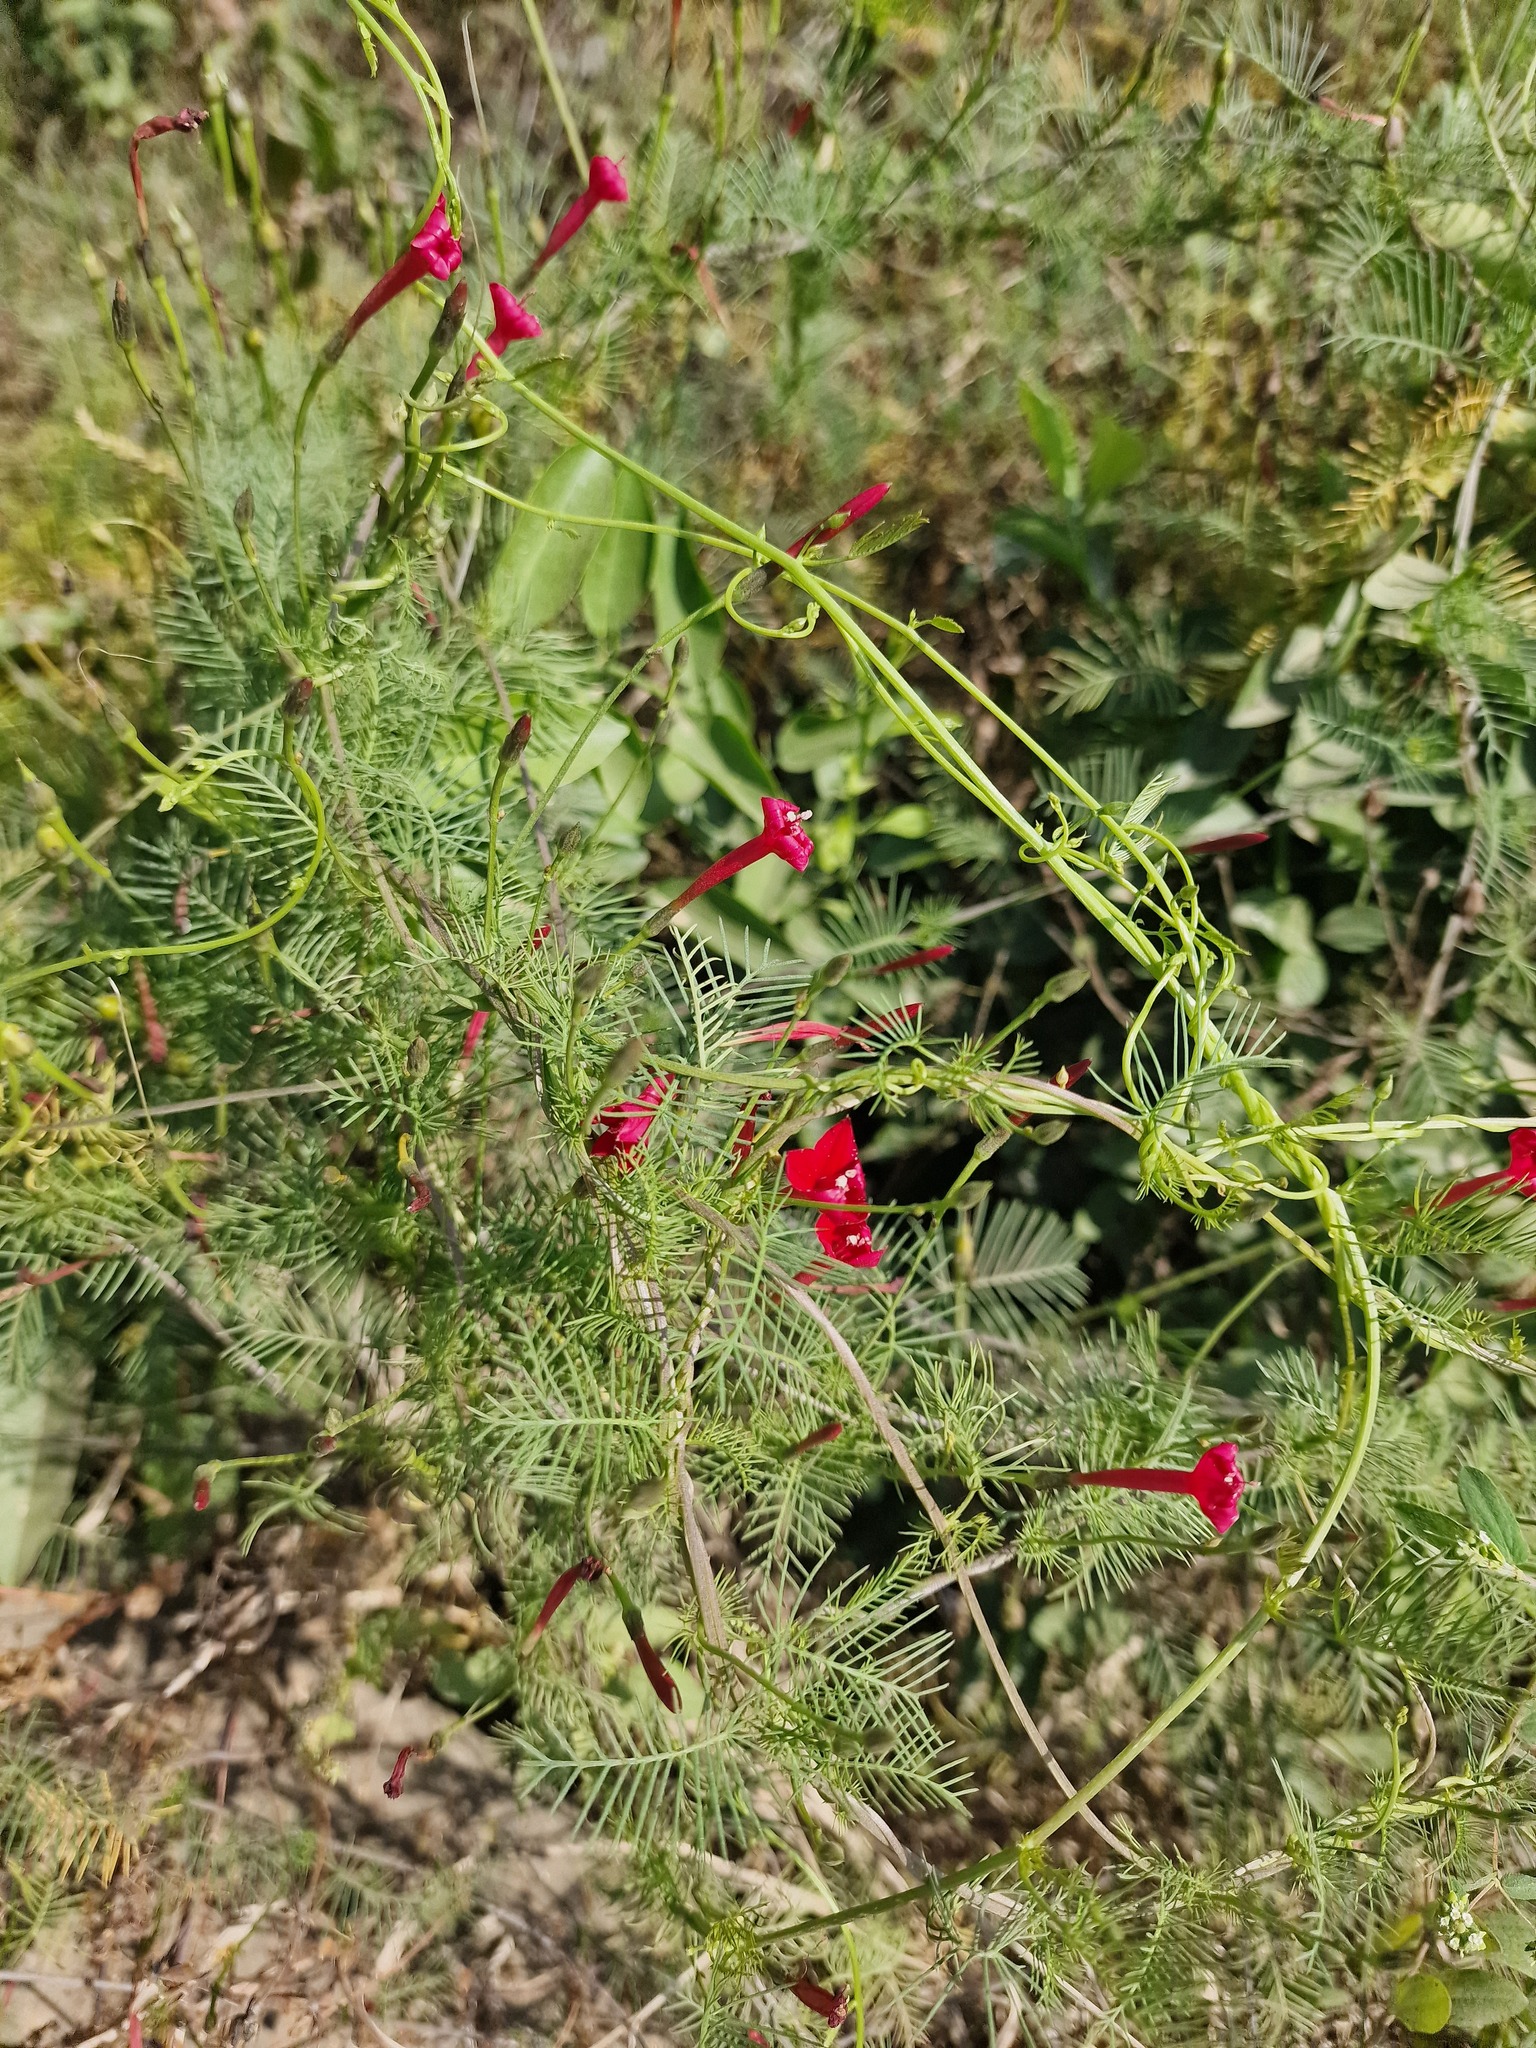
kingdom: Plantae
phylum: Tracheophyta
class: Magnoliopsida
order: Solanales
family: Convolvulaceae
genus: Ipomoea
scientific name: Ipomoea quamoclit
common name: Cypress vine
